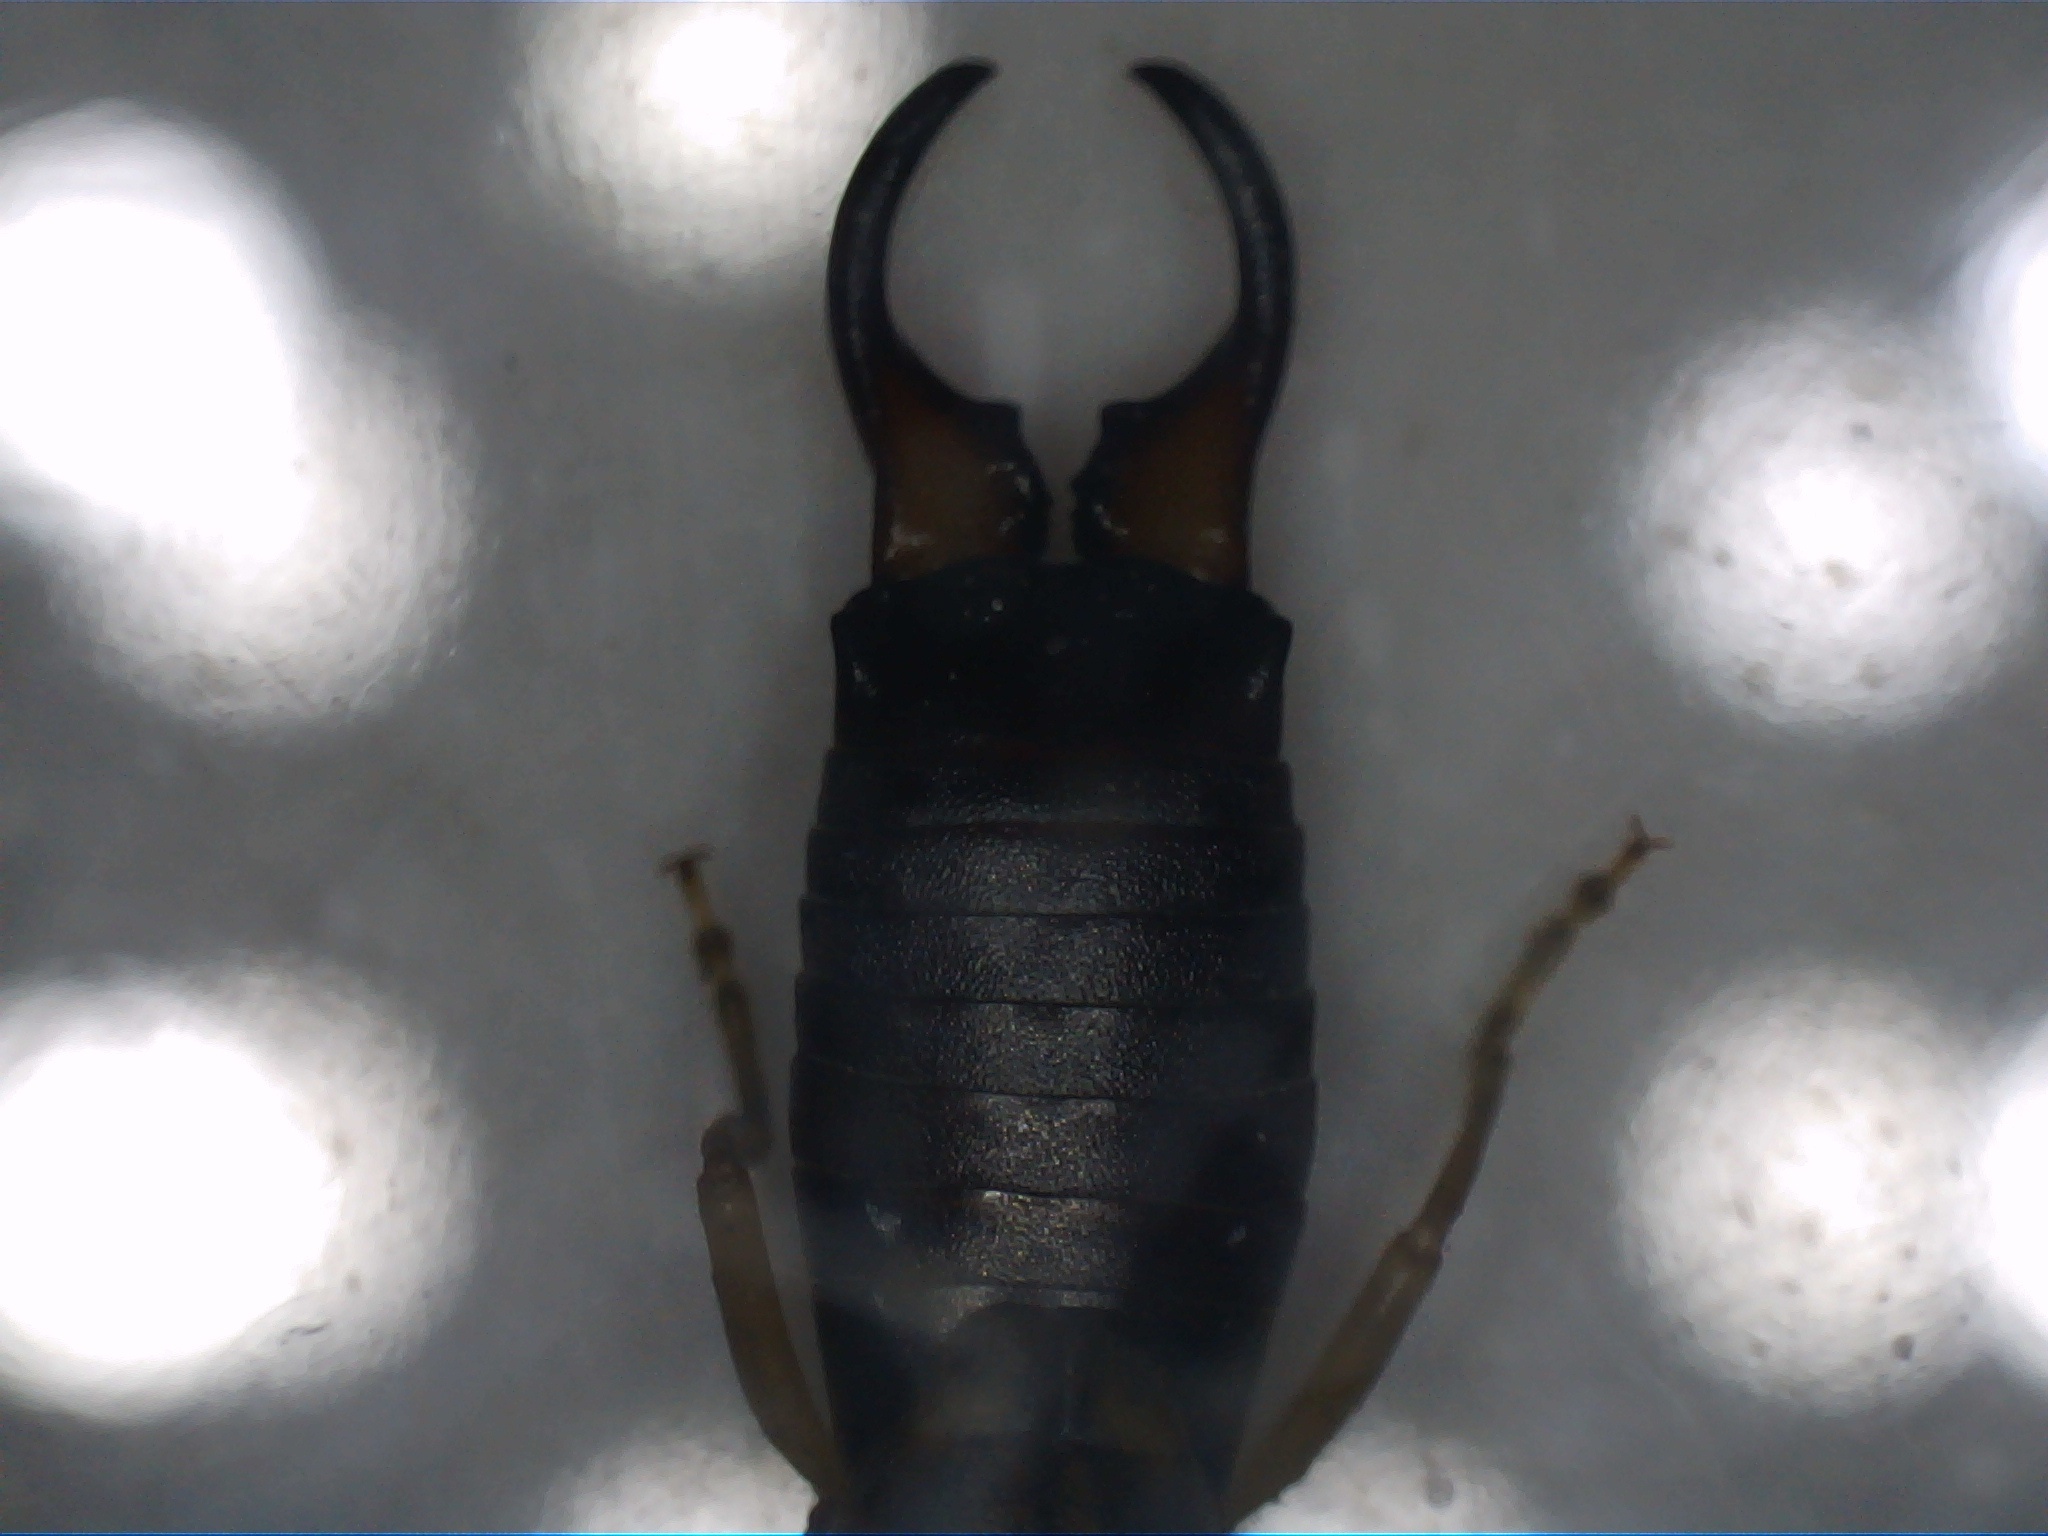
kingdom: Animalia
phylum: Arthropoda
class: Insecta
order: Dermaptera
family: Forficulidae
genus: Forficula
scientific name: Forficula
